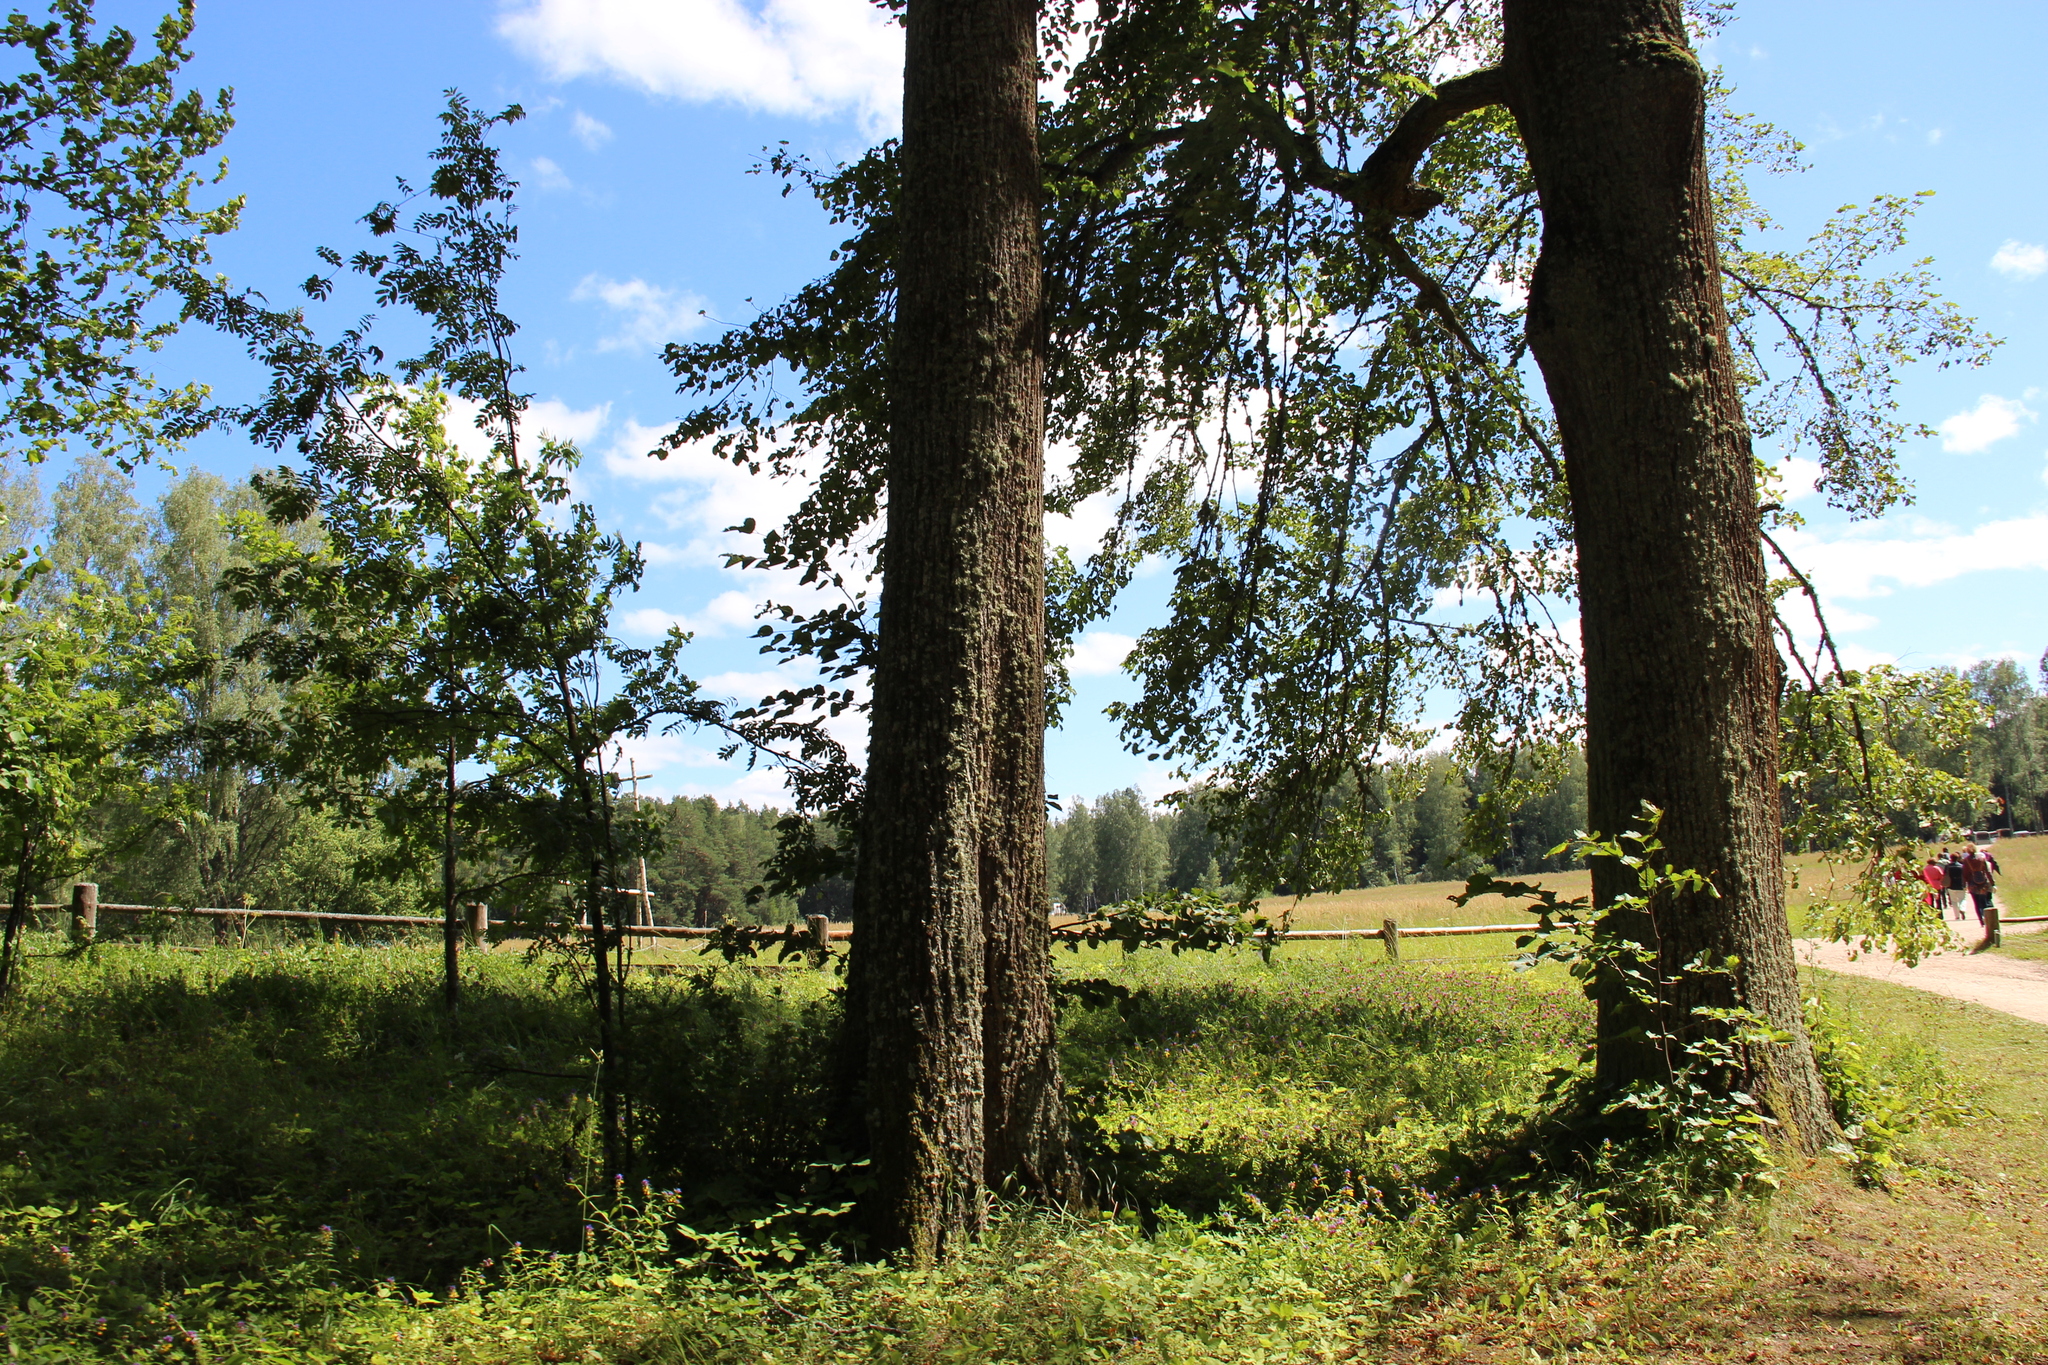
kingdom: Plantae
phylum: Tracheophyta
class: Magnoliopsida
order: Malvales
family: Malvaceae
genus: Tilia
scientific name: Tilia cordata
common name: Small-leaved lime
